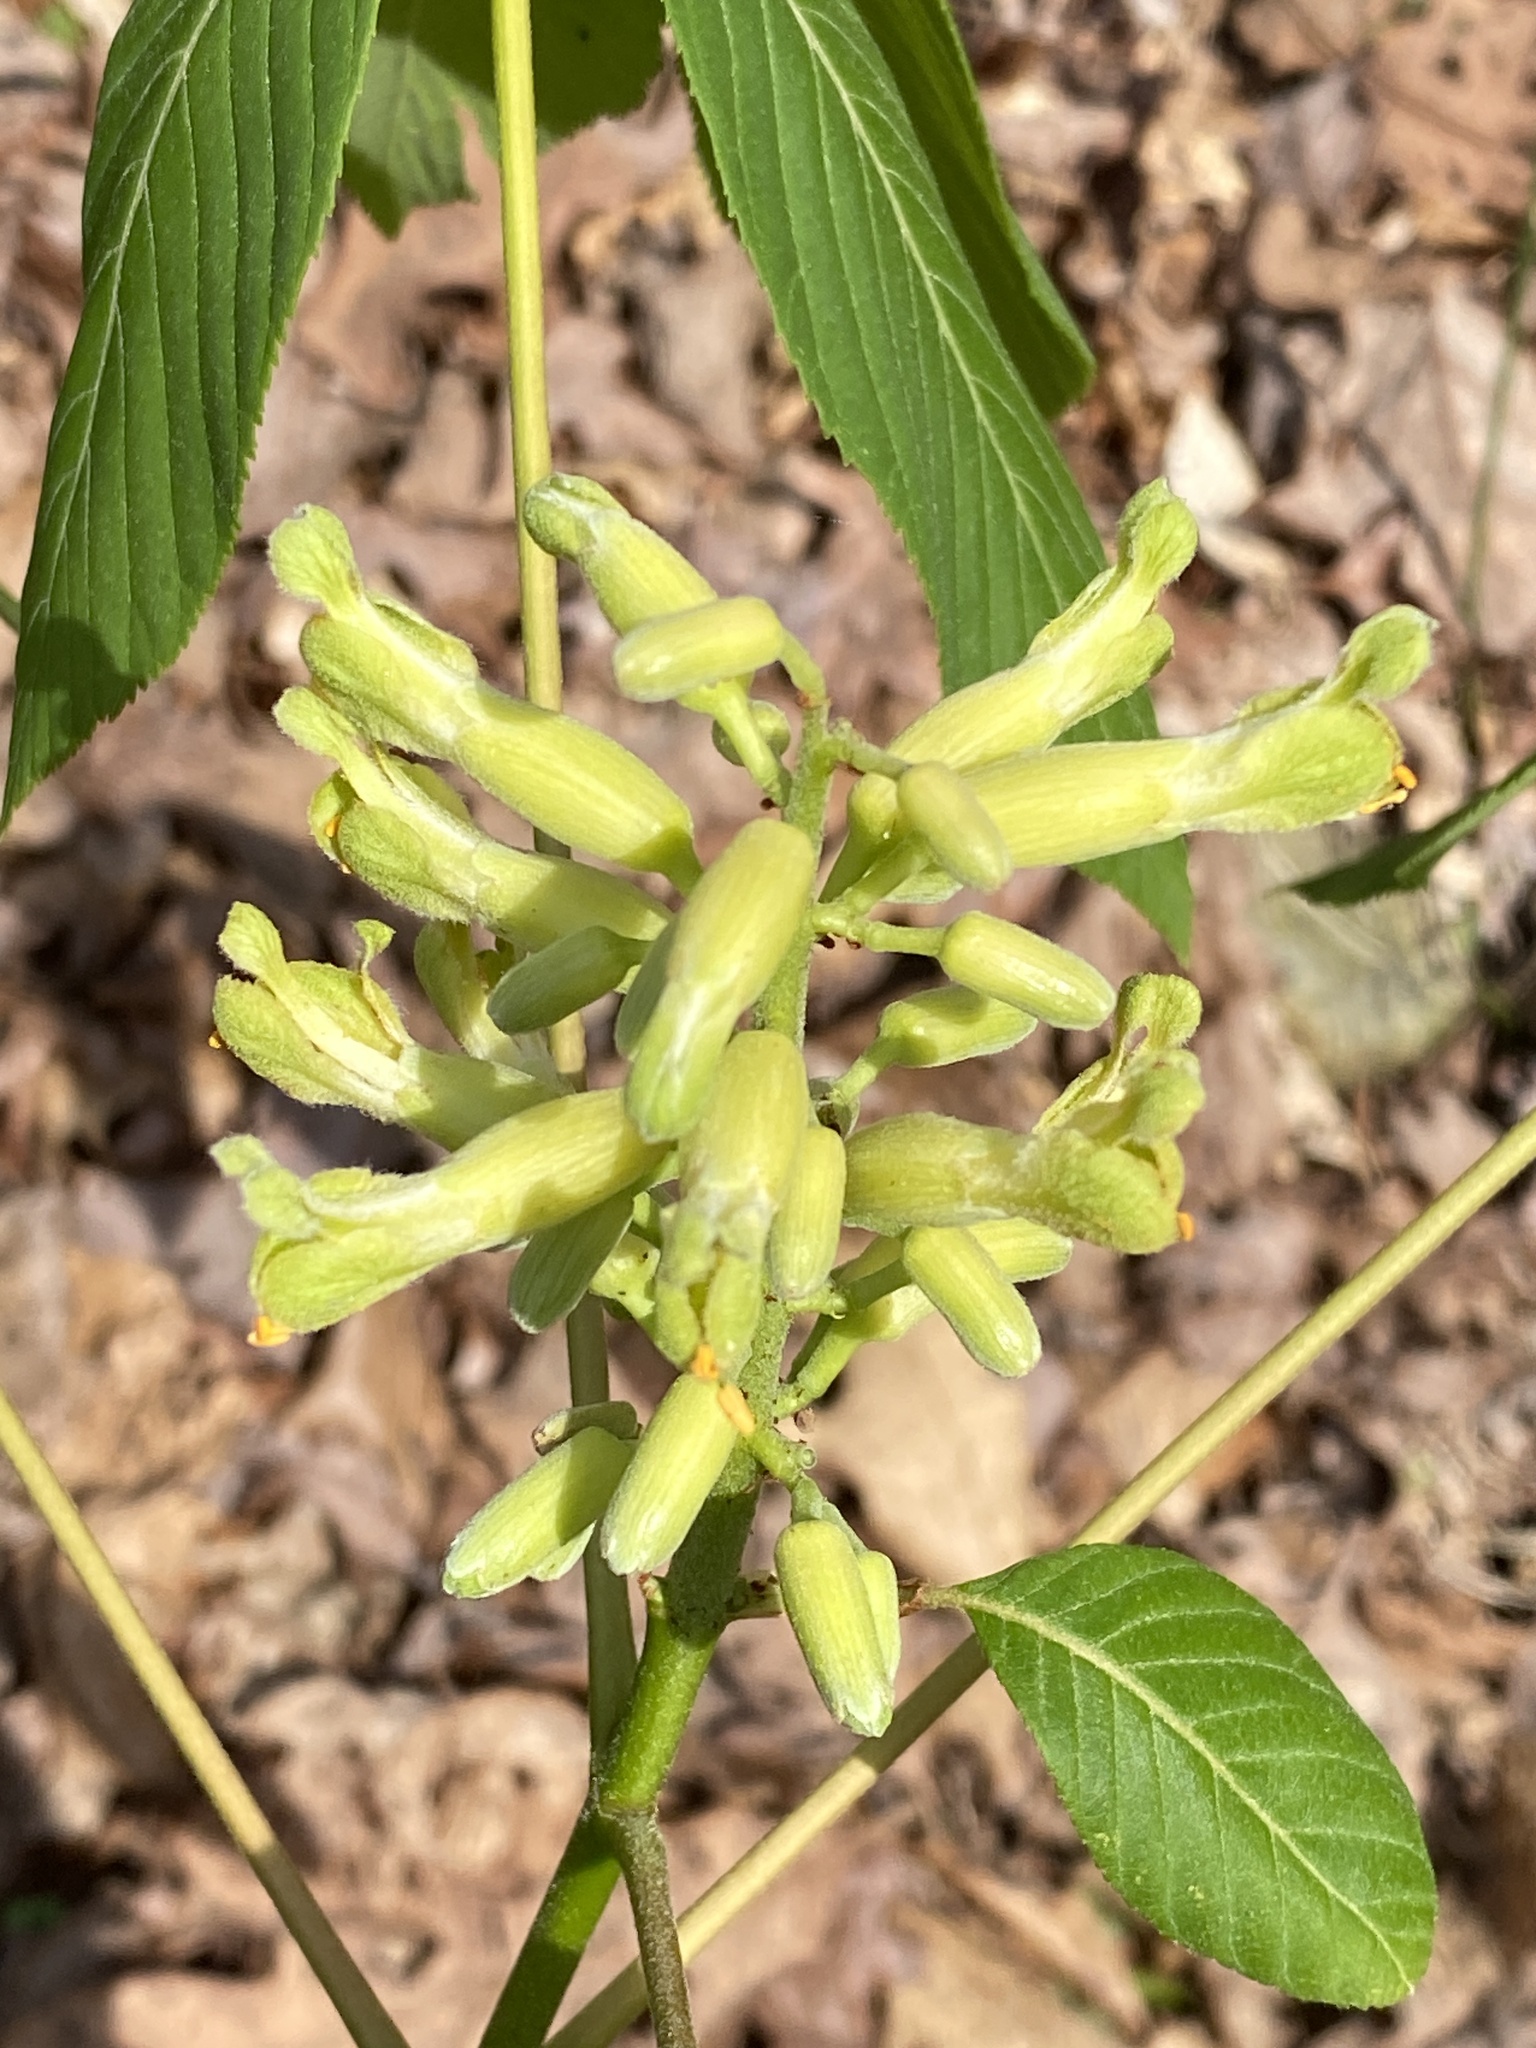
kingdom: Plantae
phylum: Tracheophyta
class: Magnoliopsida
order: Sapindales
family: Sapindaceae
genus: Aesculus
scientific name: Aesculus sylvatica
